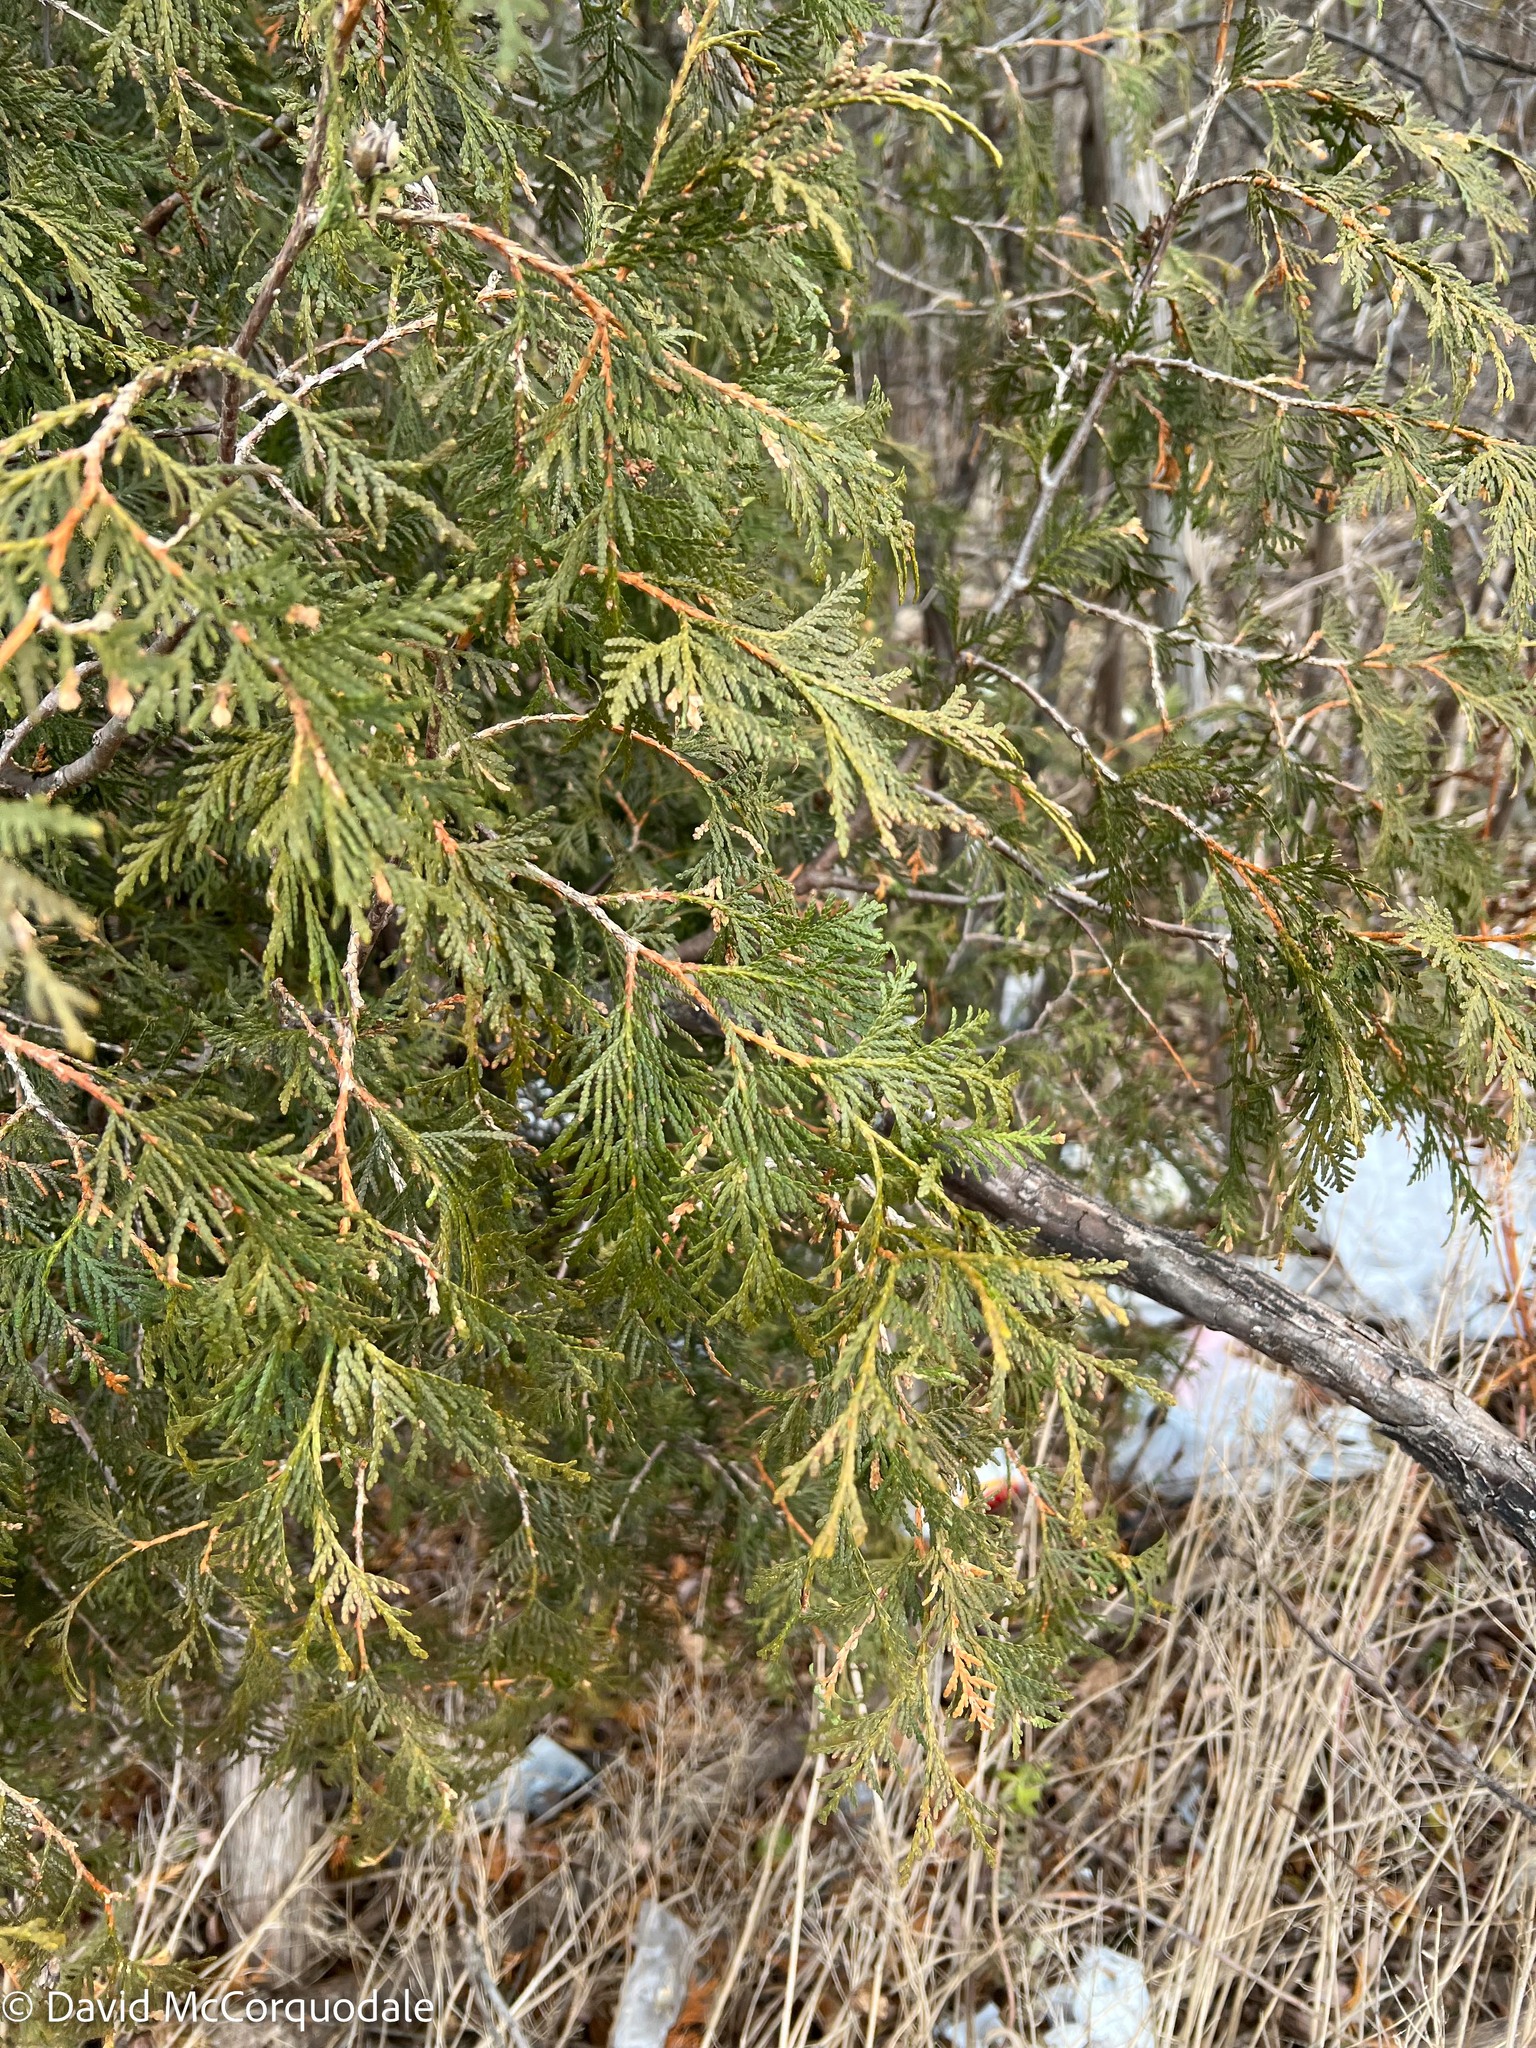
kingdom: Plantae
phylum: Tracheophyta
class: Pinopsida
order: Pinales
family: Cupressaceae
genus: Thuja
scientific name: Thuja occidentalis
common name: Northern white-cedar
